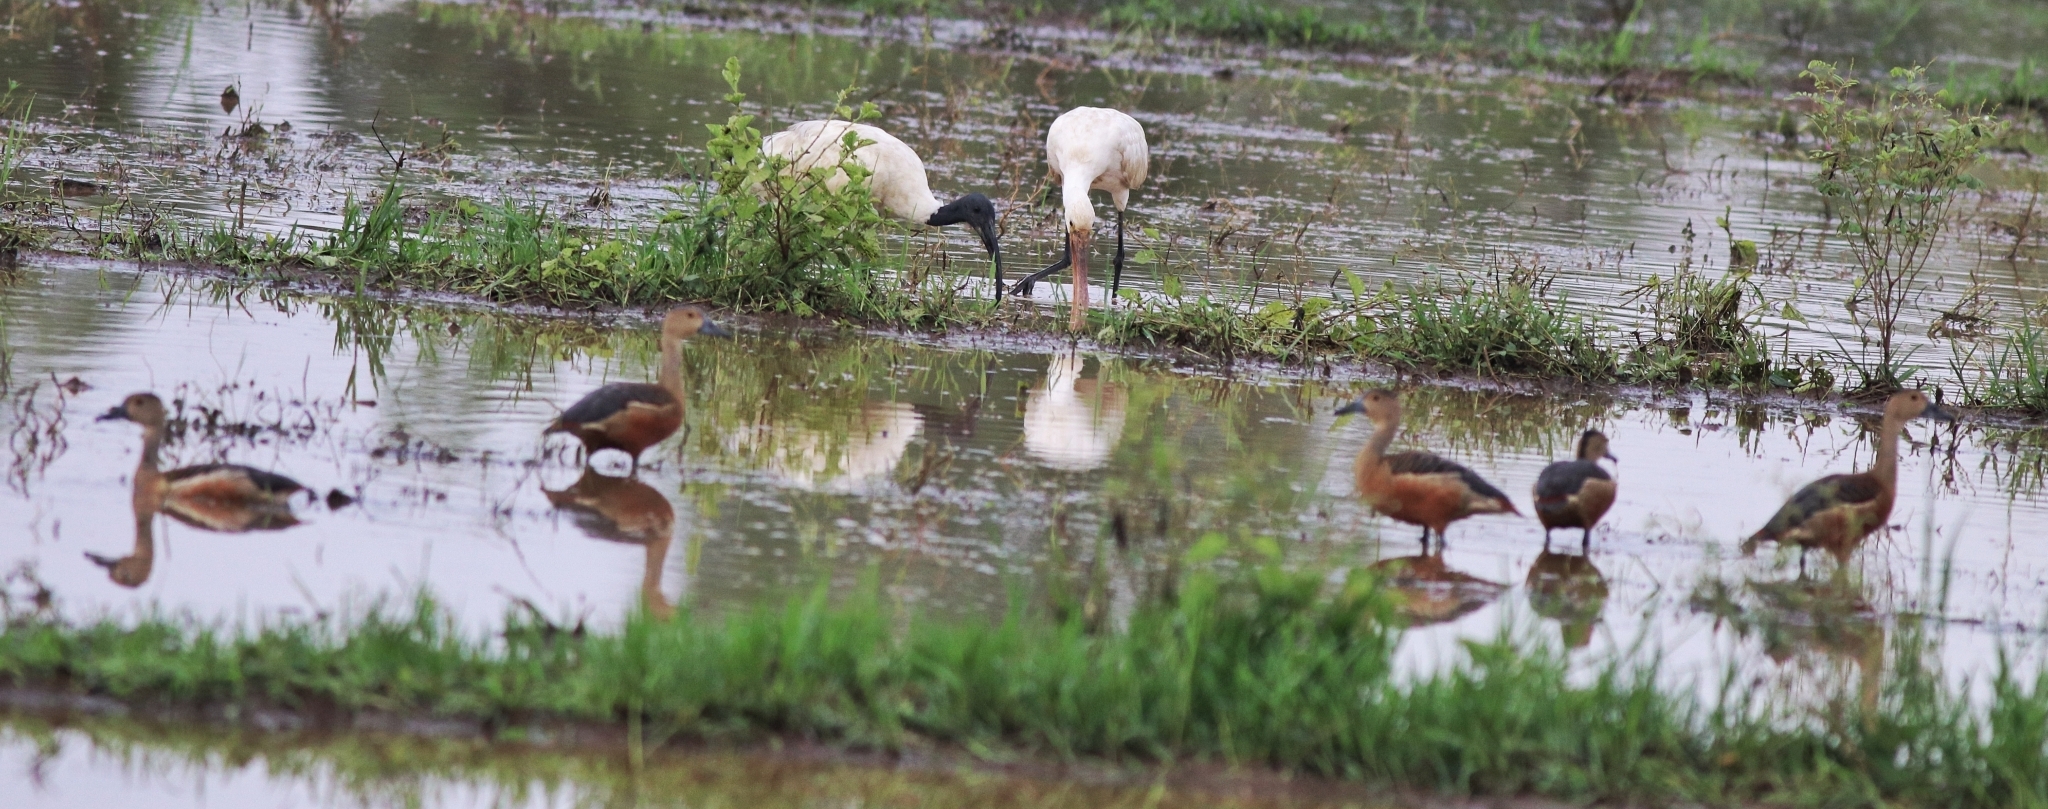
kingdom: Animalia
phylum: Chordata
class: Aves
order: Anseriformes
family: Anatidae
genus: Dendrocygna
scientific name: Dendrocygna javanica
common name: Lesser whistling-duck
